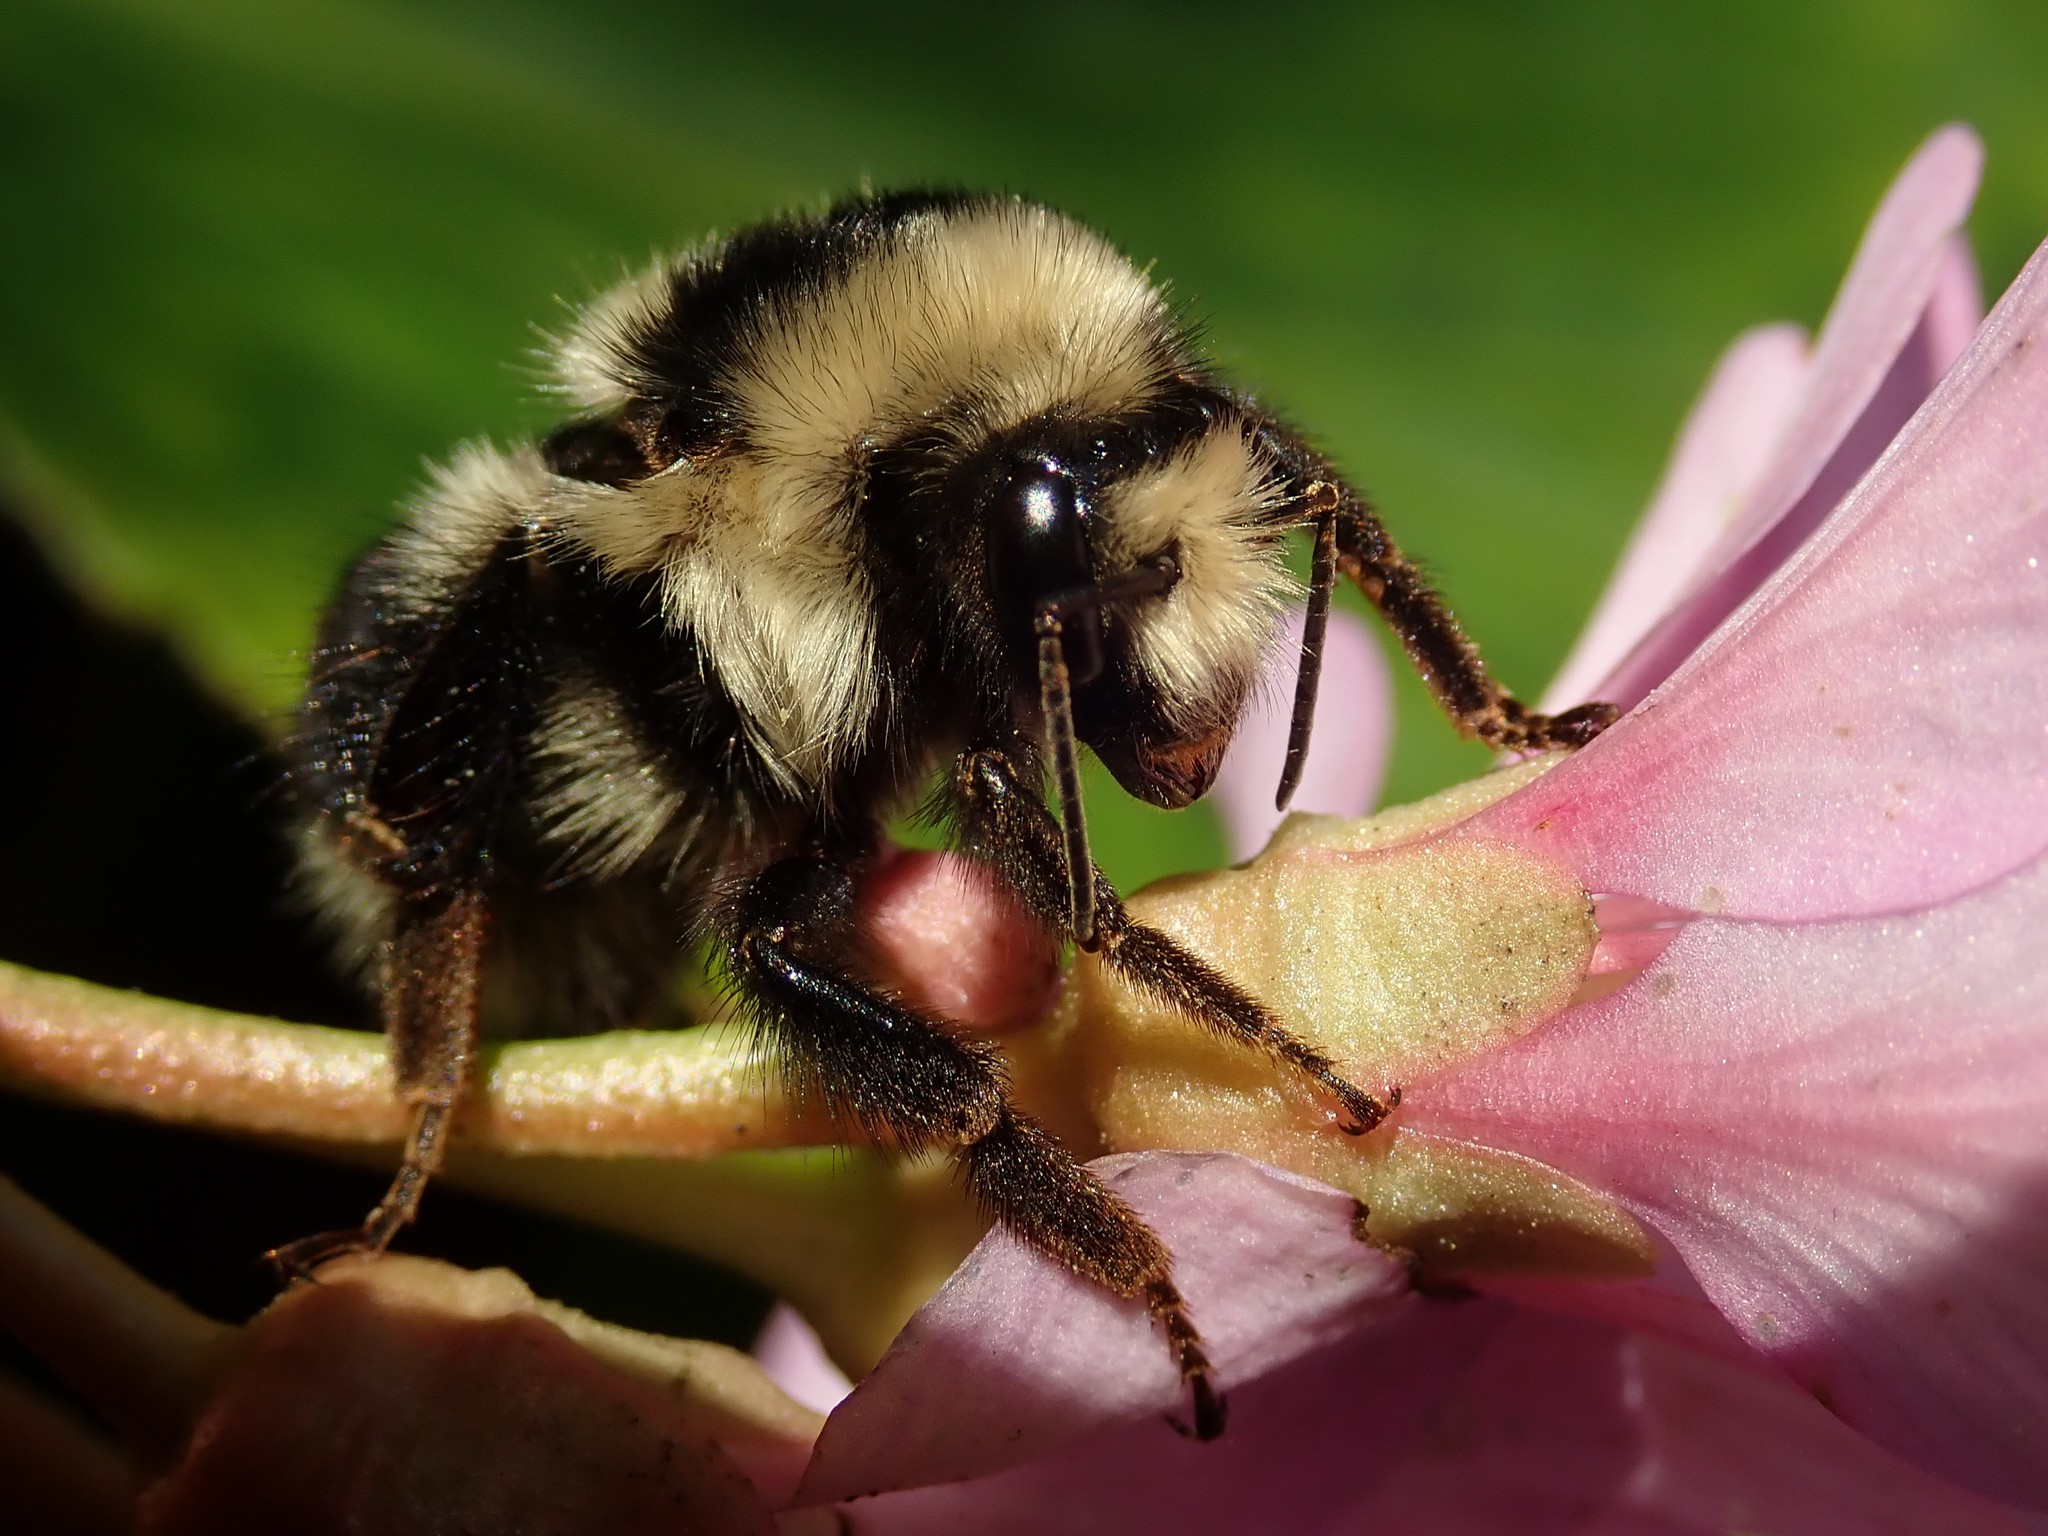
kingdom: Animalia
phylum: Arthropoda
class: Insecta
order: Hymenoptera
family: Apidae
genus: Bombus
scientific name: Bombus melanopygus
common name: Black tail bumble bee
